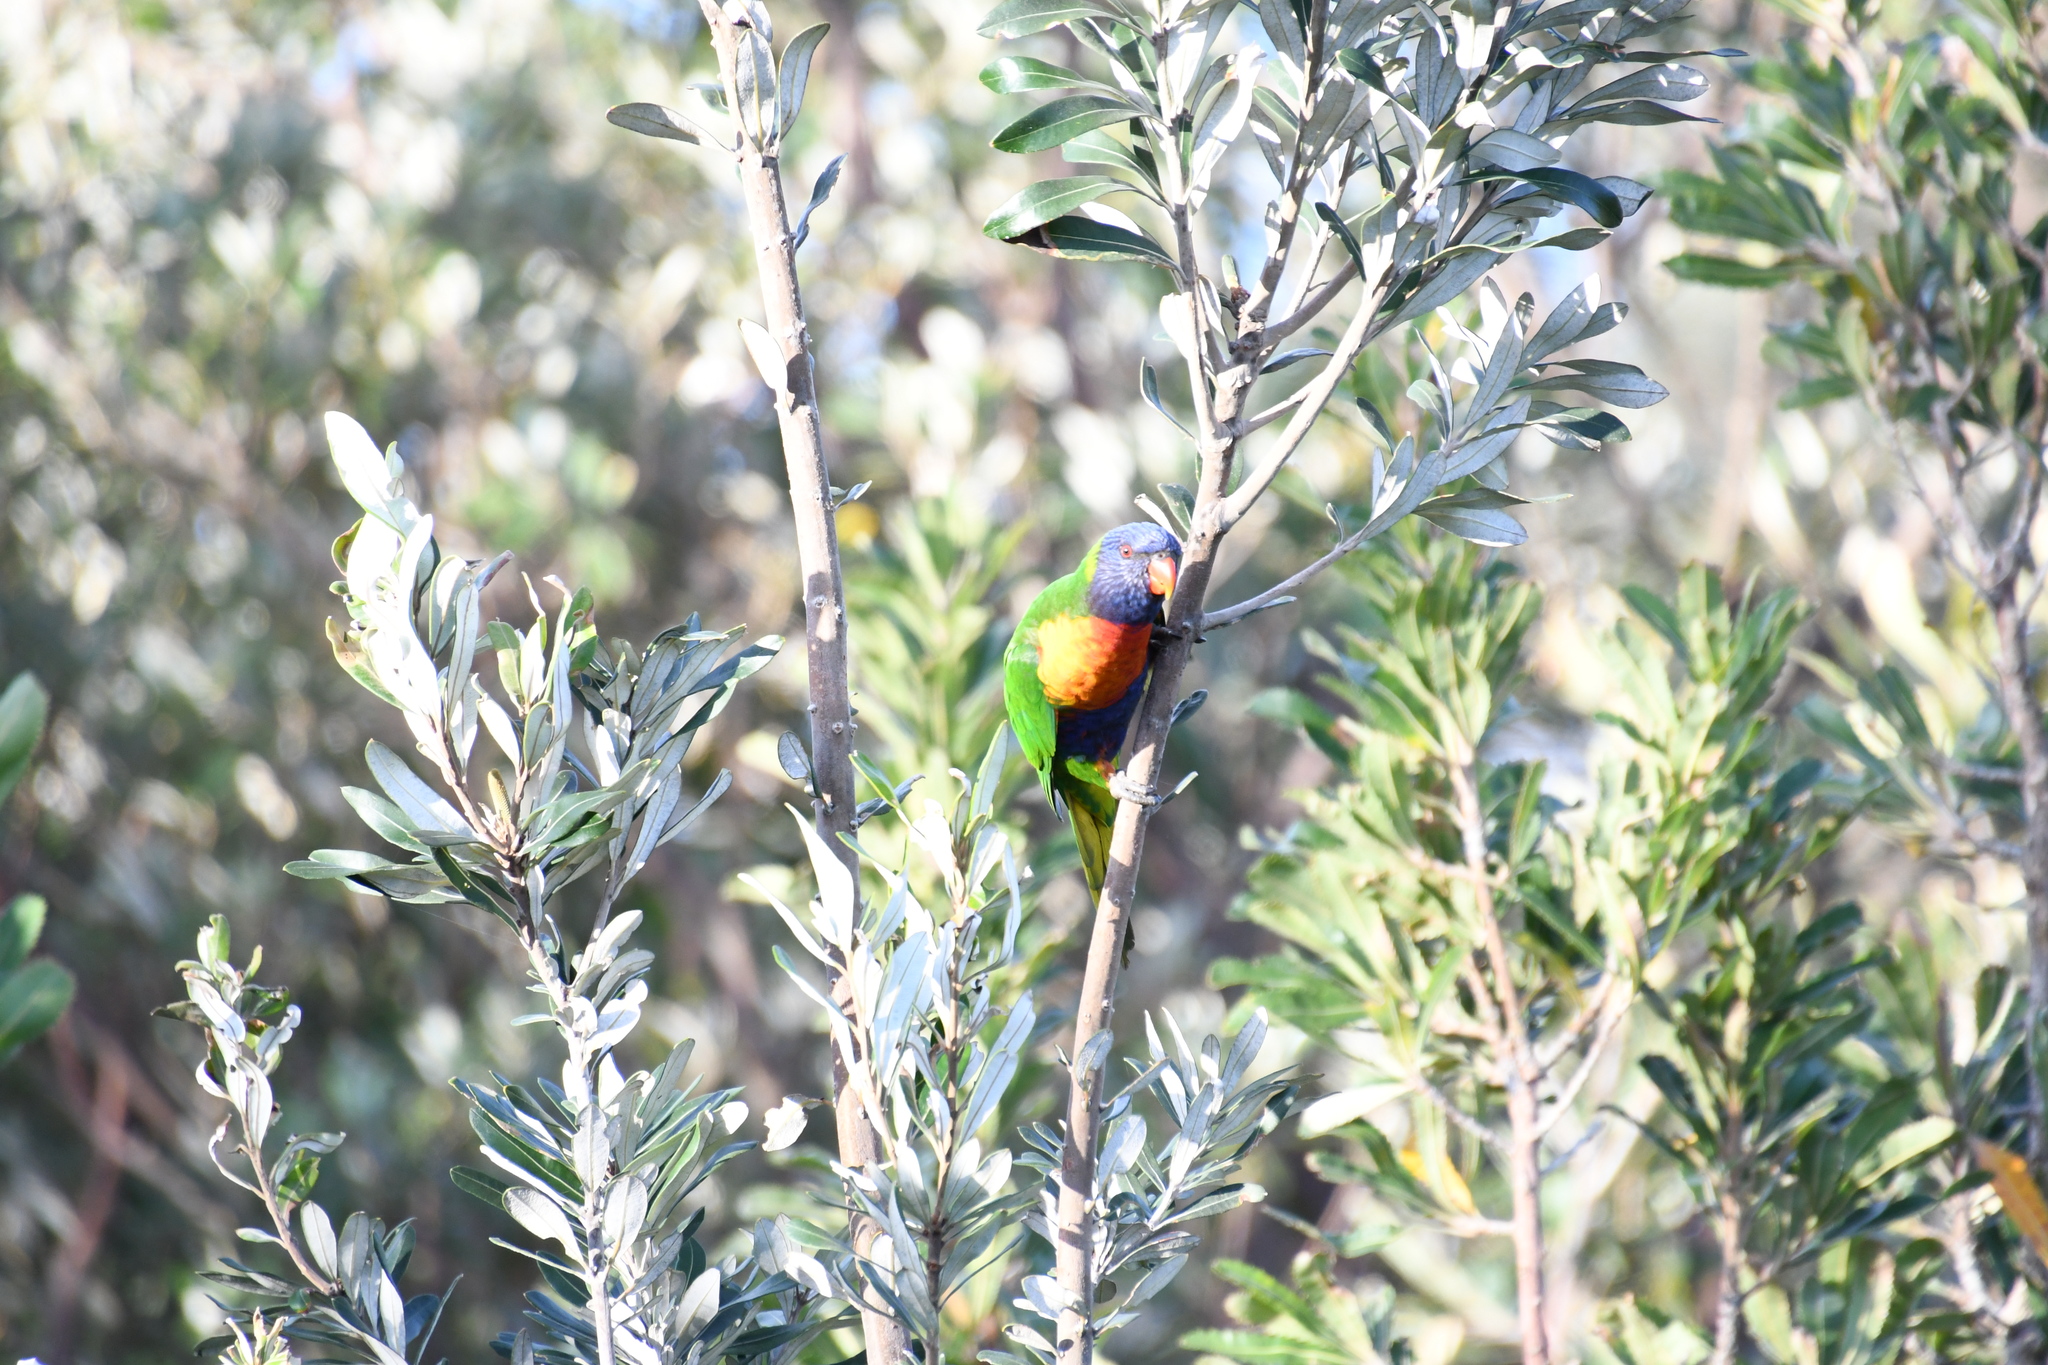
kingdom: Animalia
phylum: Chordata
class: Aves
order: Psittaciformes
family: Psittacidae
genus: Trichoglossus
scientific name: Trichoglossus haematodus
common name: Coconut lorikeet
